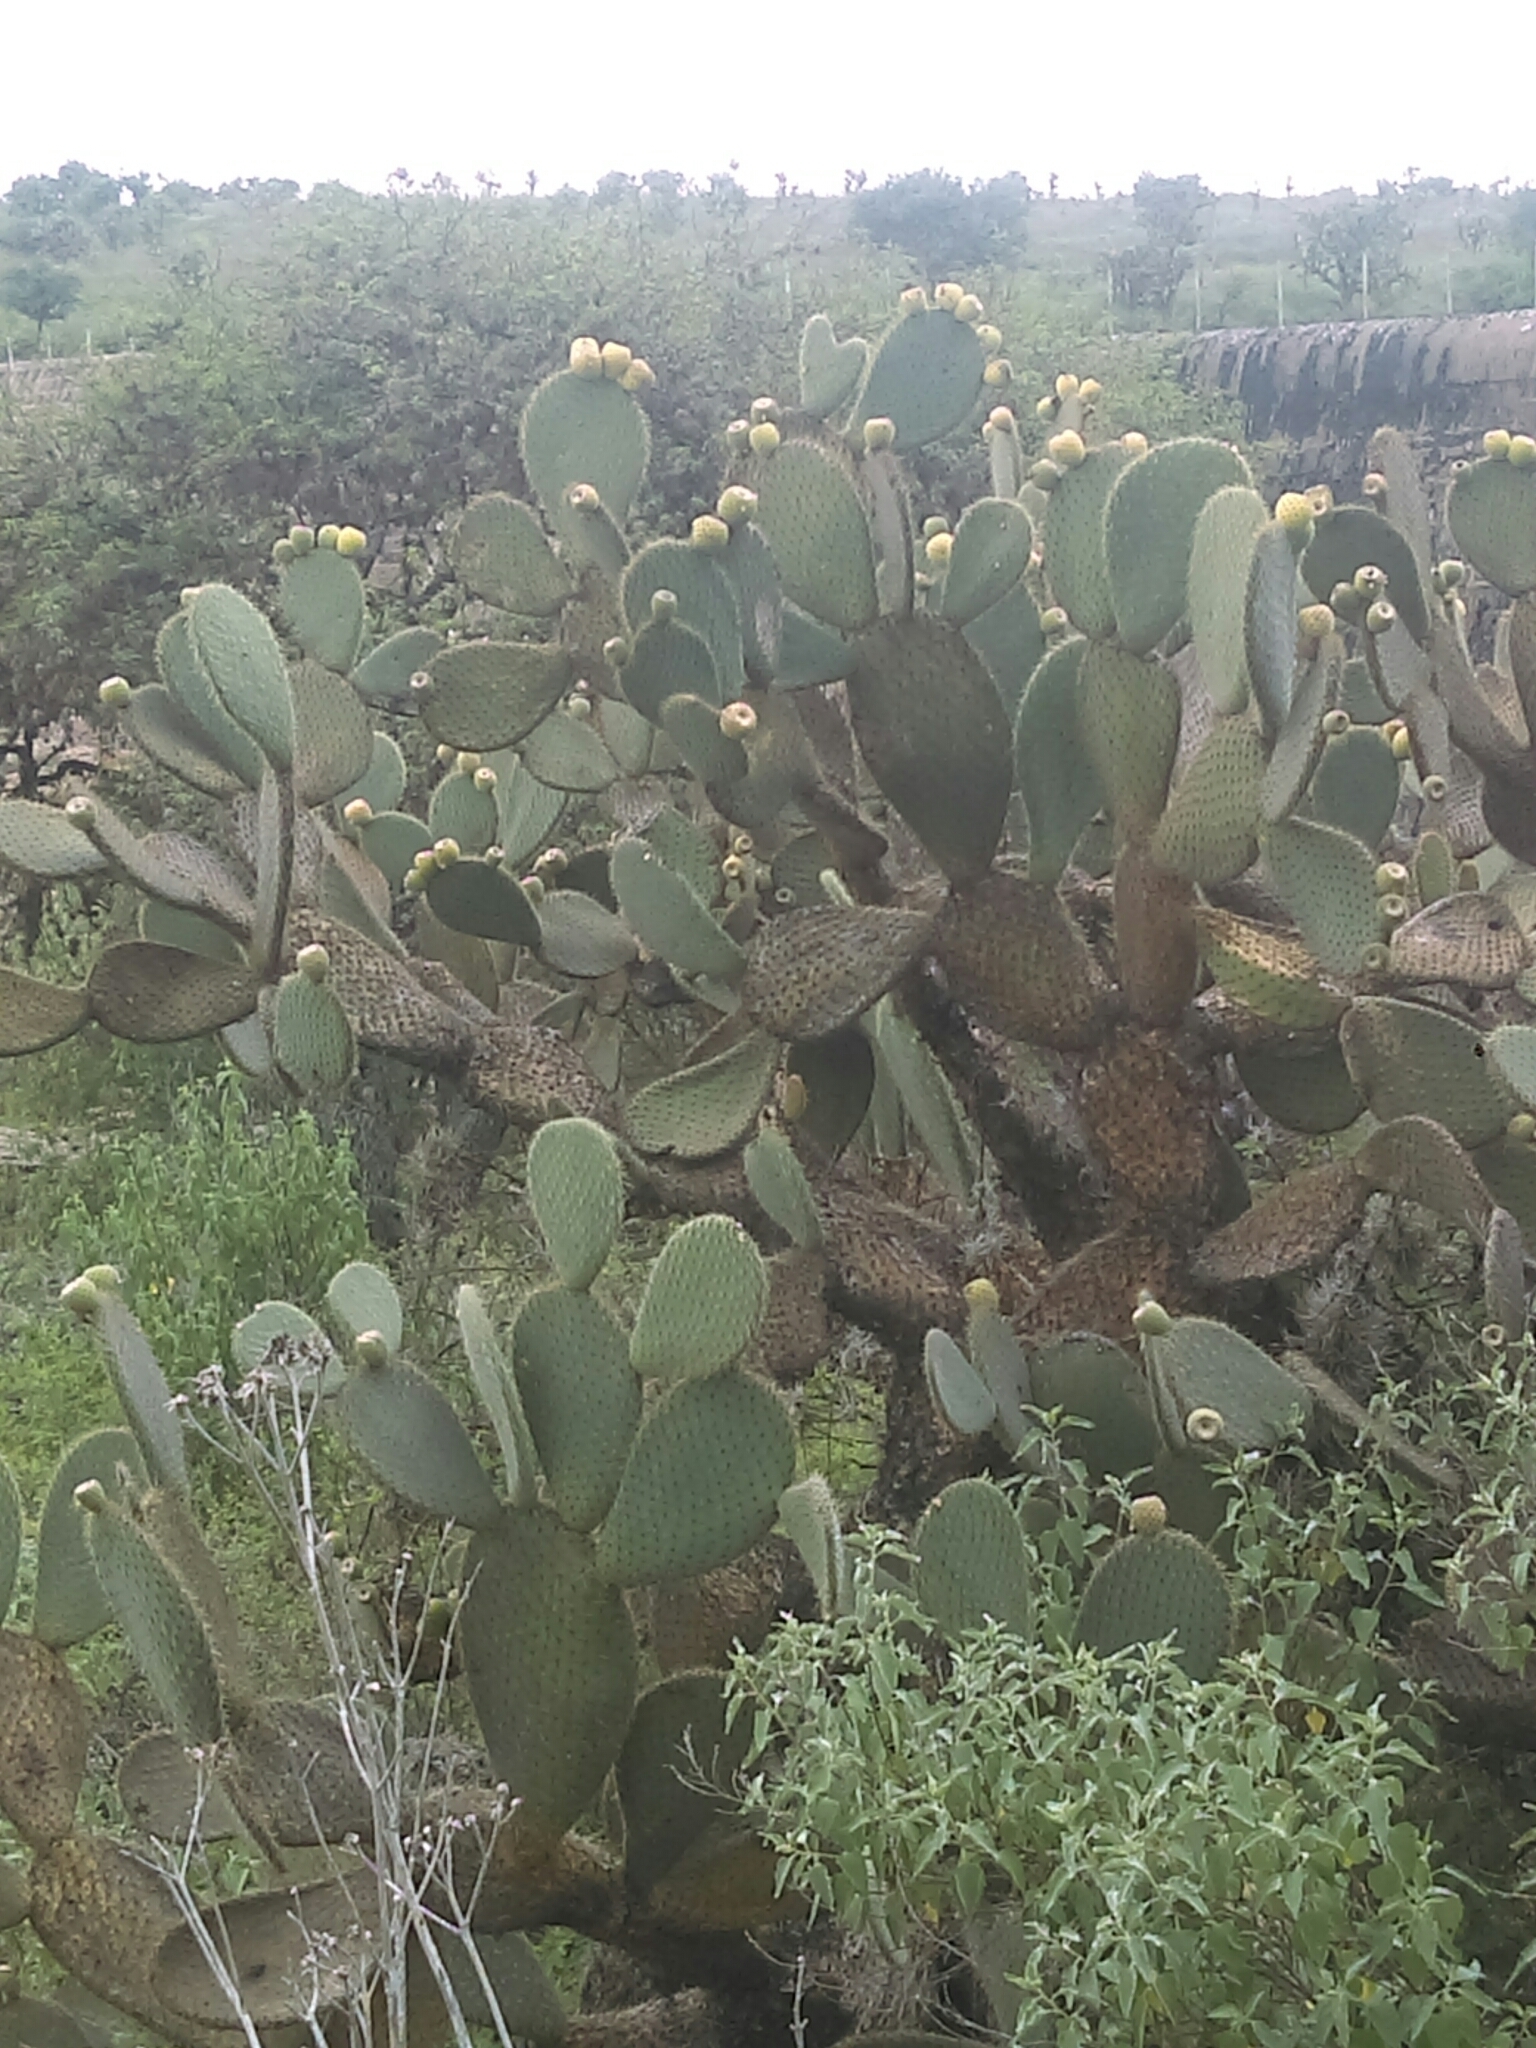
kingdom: Plantae
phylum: Tracheophyta
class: Magnoliopsida
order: Caryophyllales
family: Cactaceae
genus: Opuntia
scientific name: Opuntia leucotricha
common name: Arborescent pricklypear
